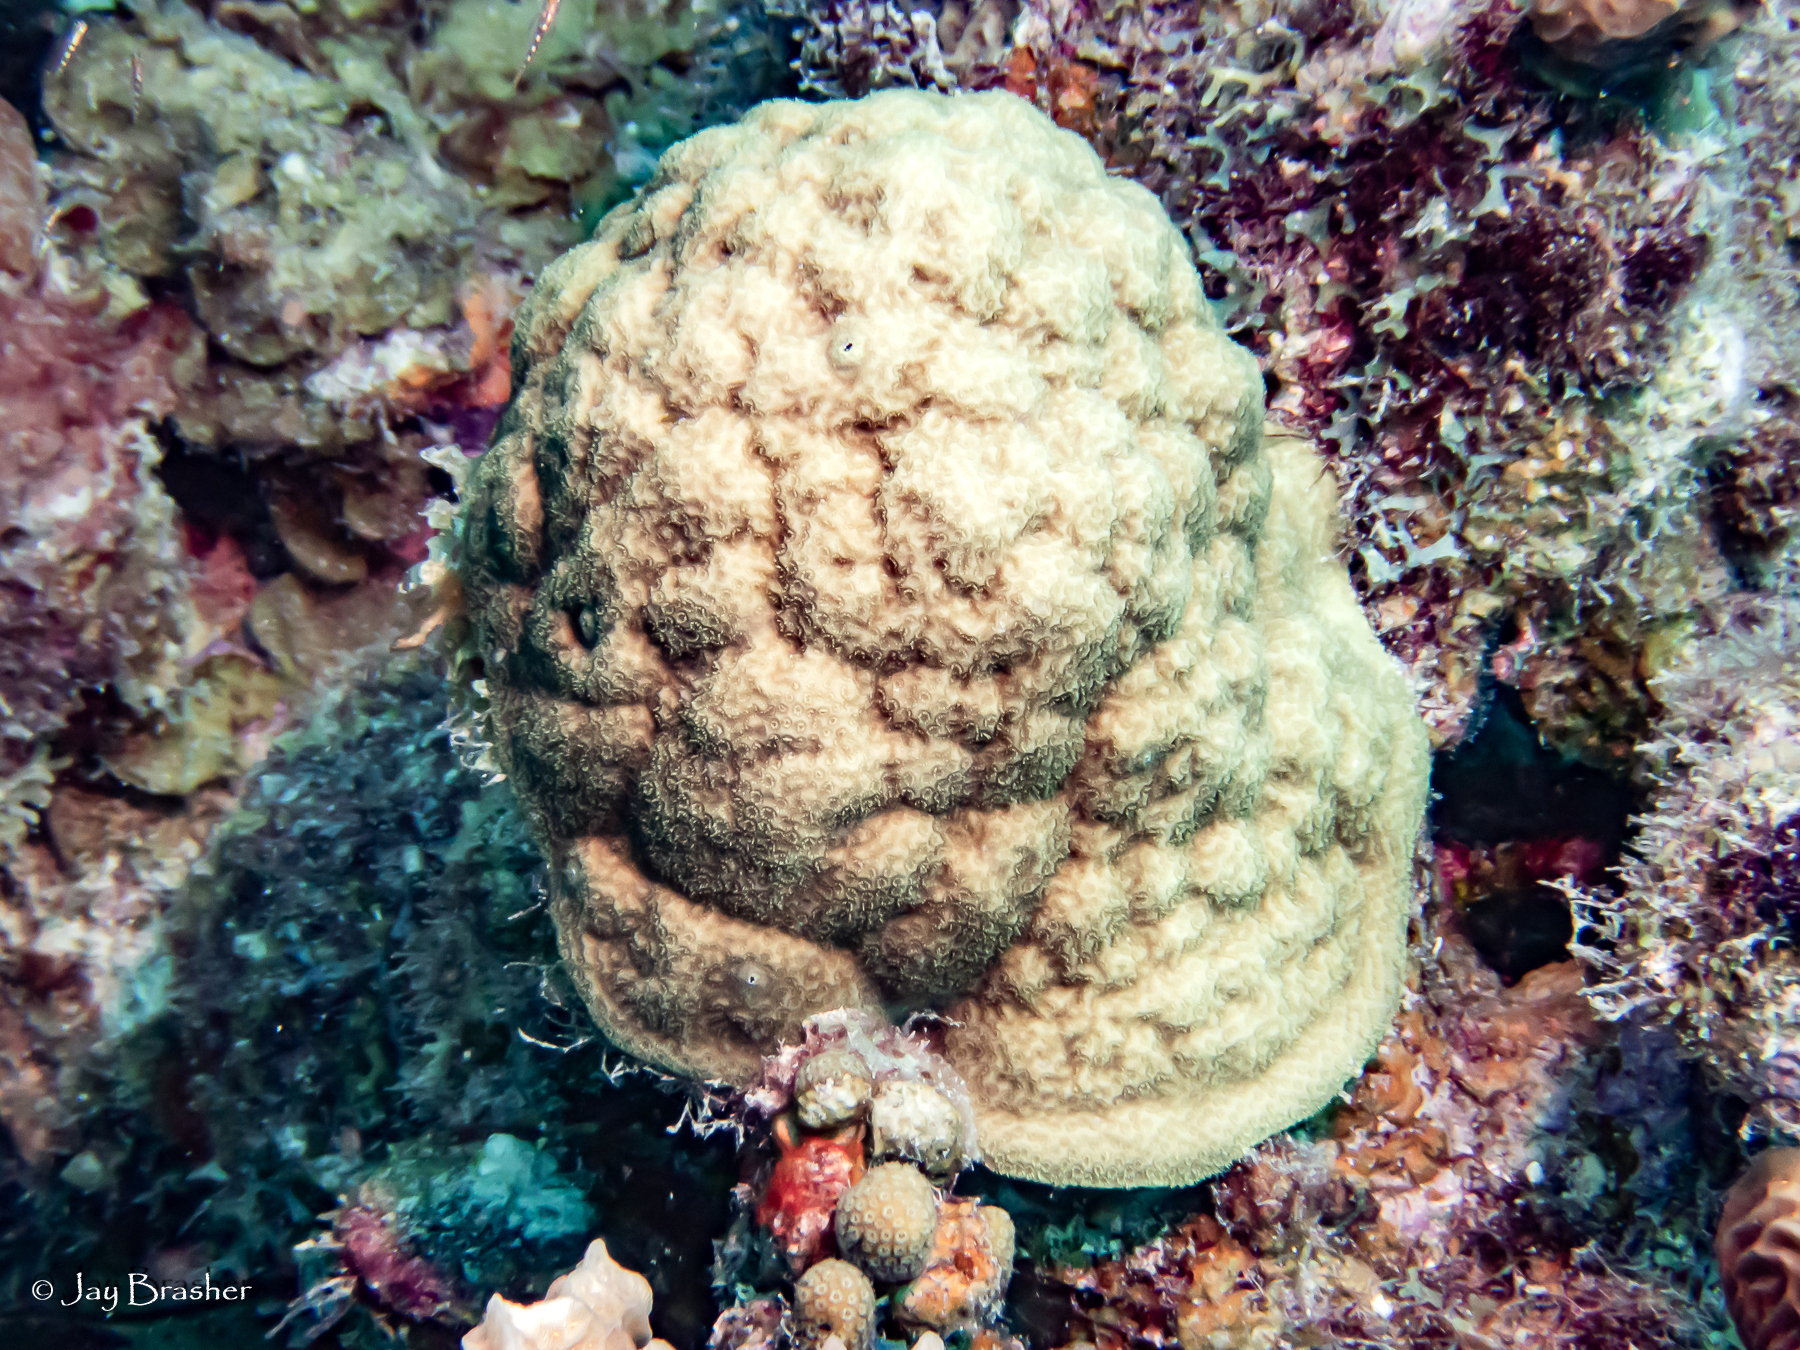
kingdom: Animalia
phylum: Cnidaria
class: Anthozoa
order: Scleractinia
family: Poritidae
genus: Porites
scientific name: Porites astreoides
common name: Mustard hill coral
